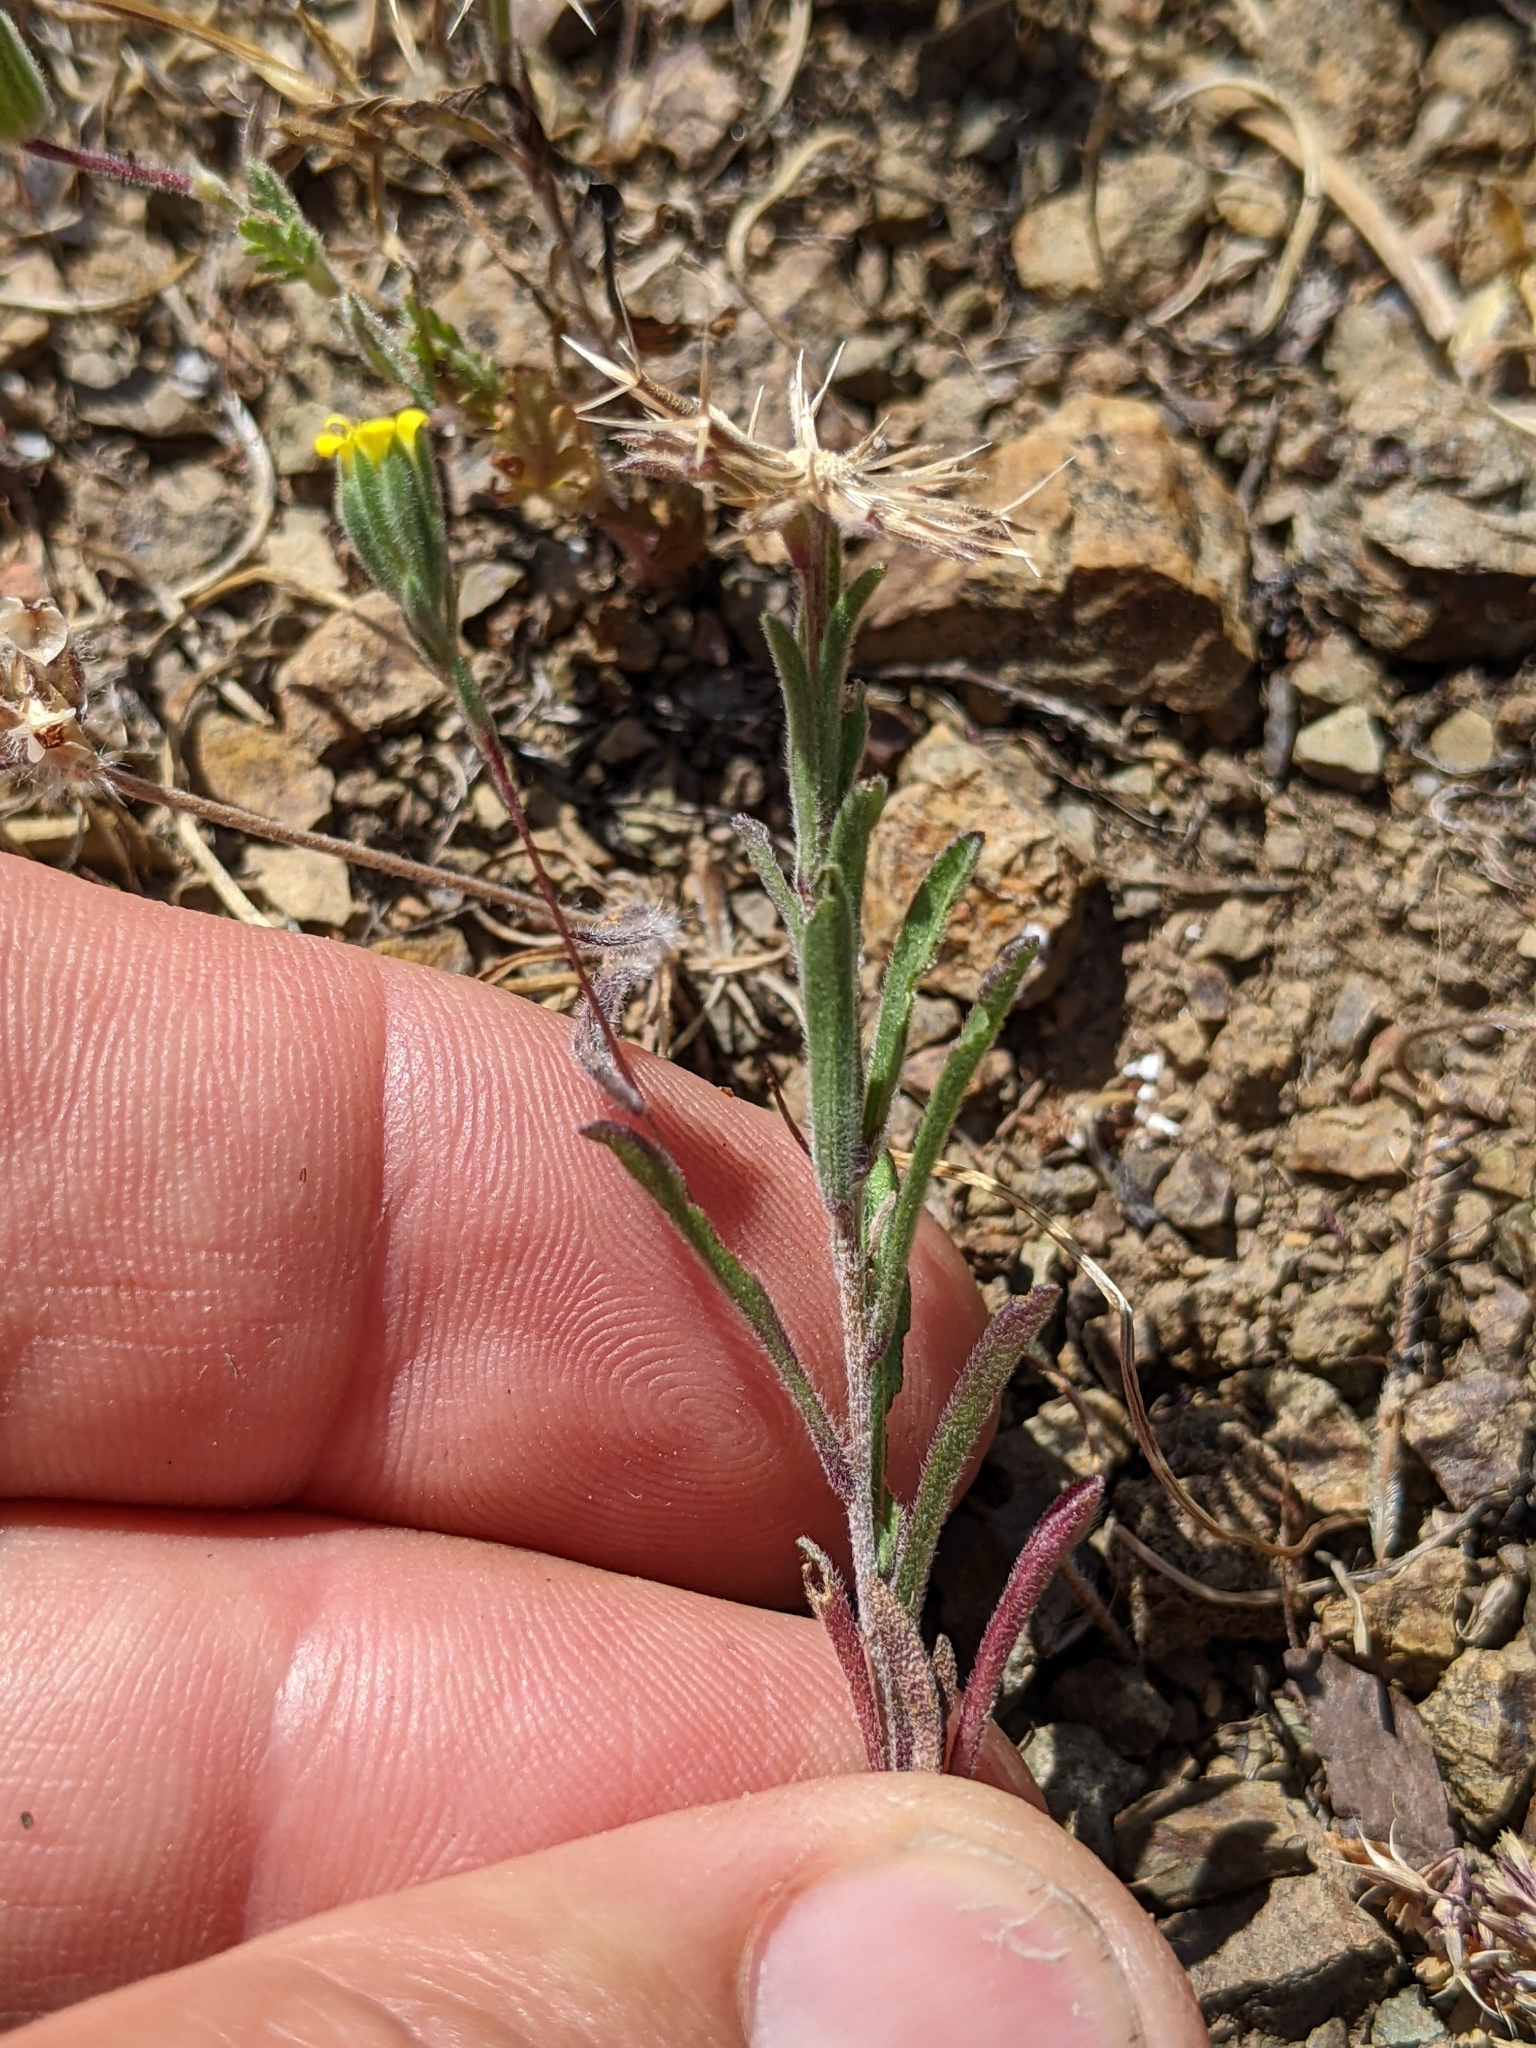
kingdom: Plantae
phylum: Tracheophyta
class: Magnoliopsida
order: Asterales
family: Asteraceae
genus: Rigiopappus
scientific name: Rigiopappus leptocladus
